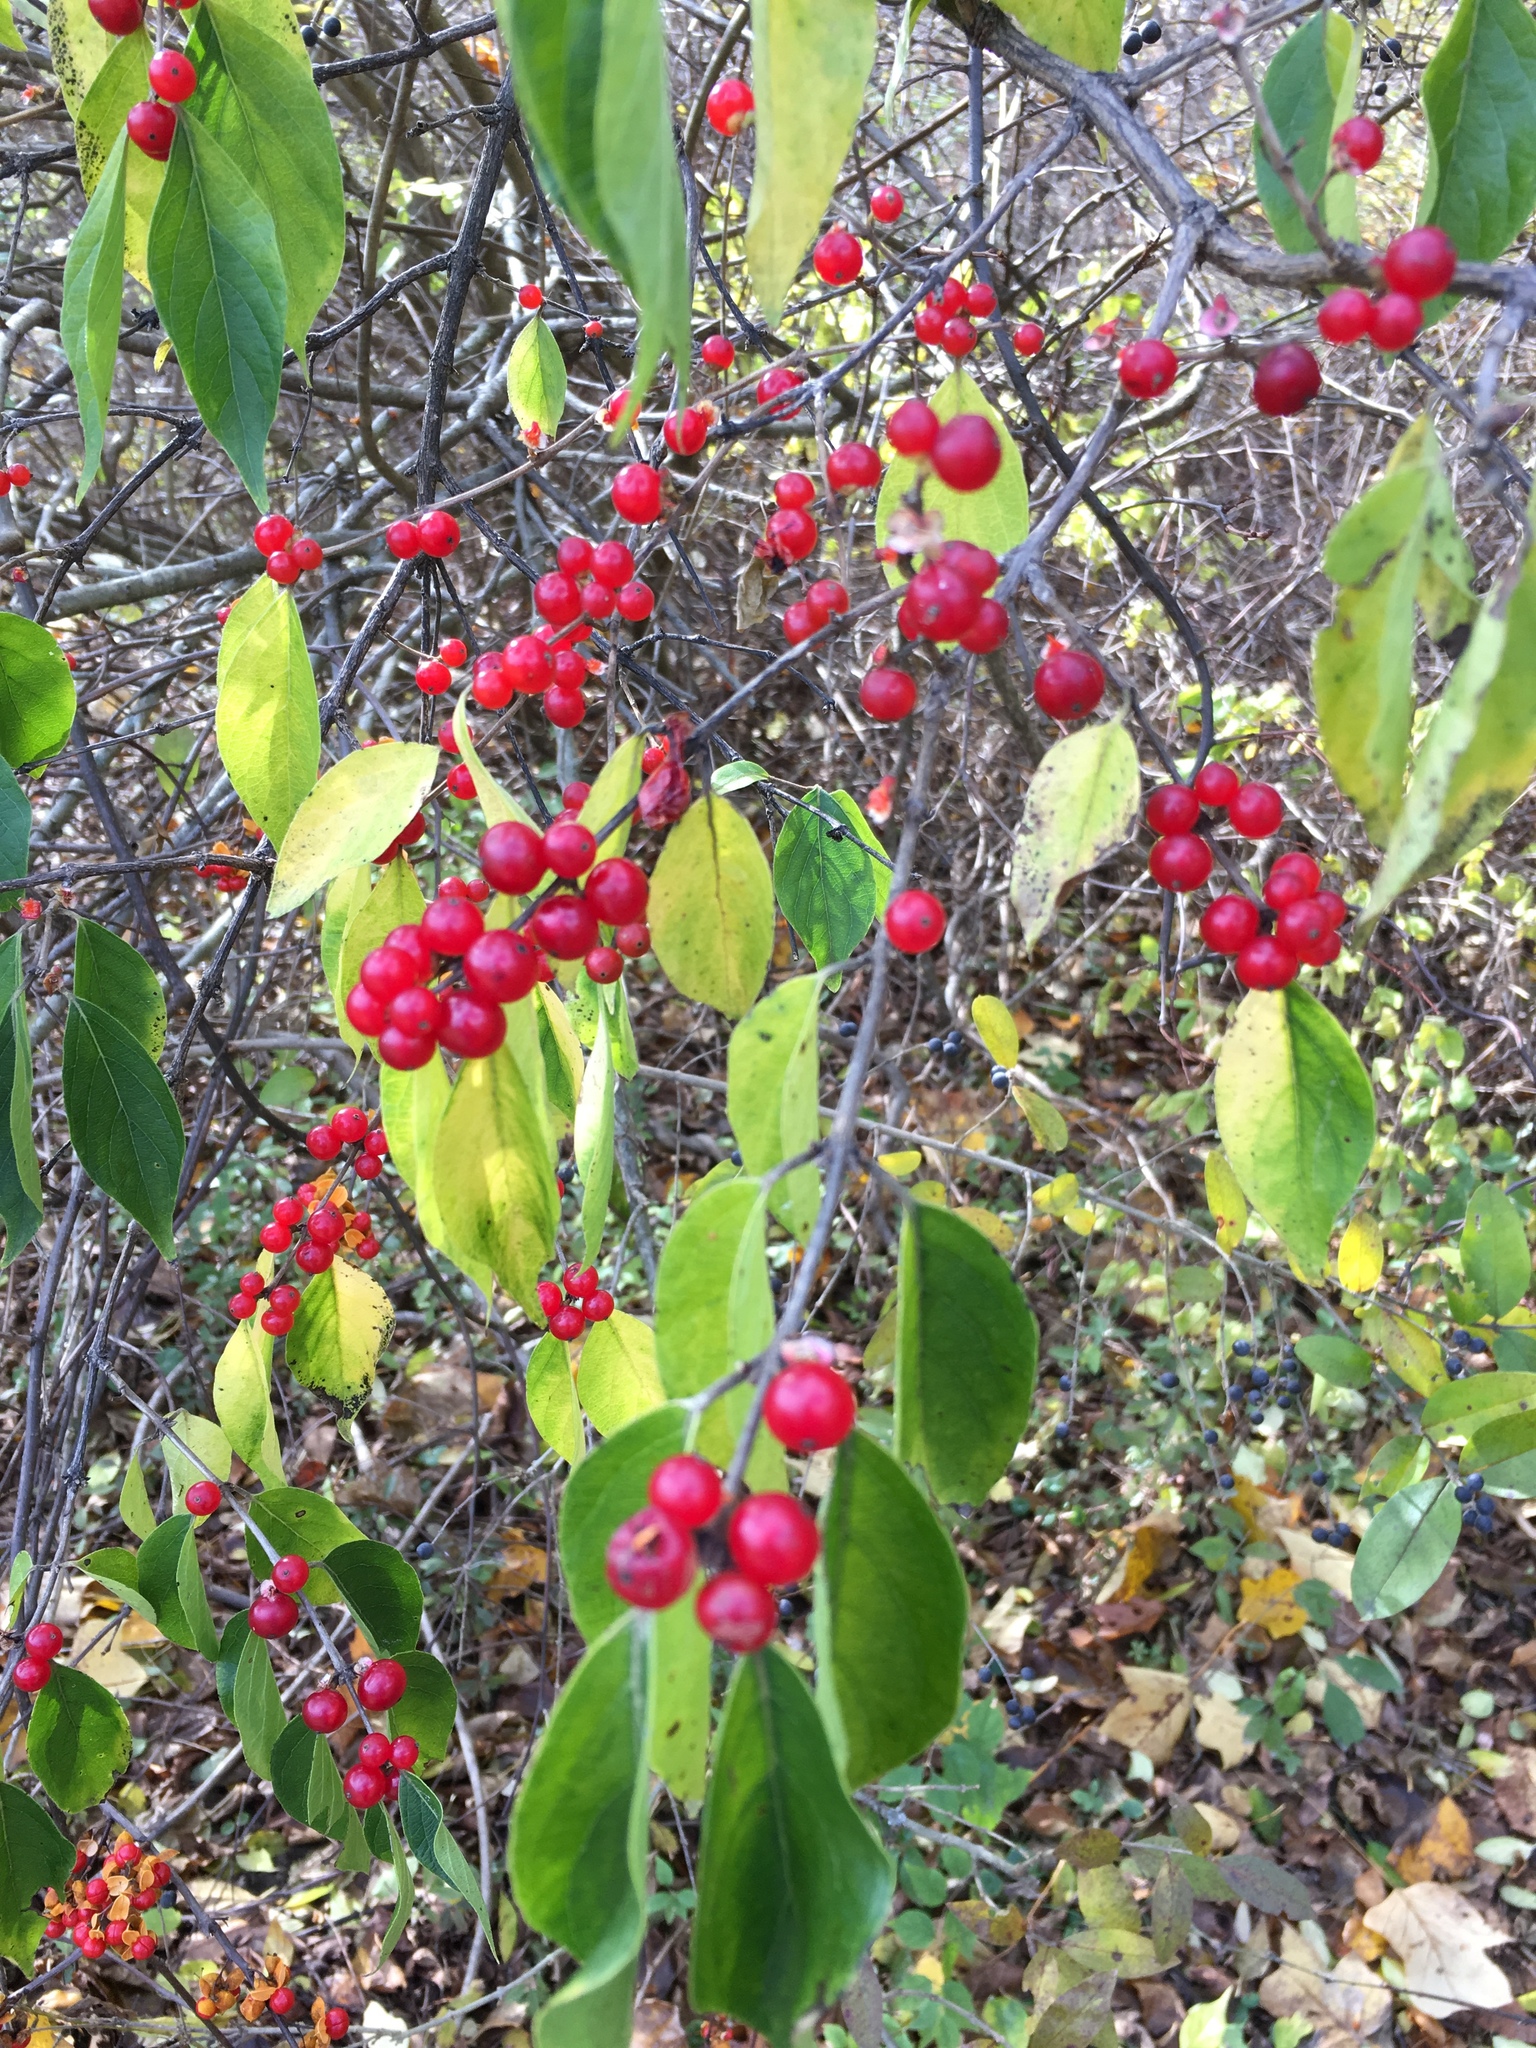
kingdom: Plantae
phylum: Tracheophyta
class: Magnoliopsida
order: Dipsacales
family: Caprifoliaceae
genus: Lonicera
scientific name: Lonicera maackii
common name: Amur honeysuckle
